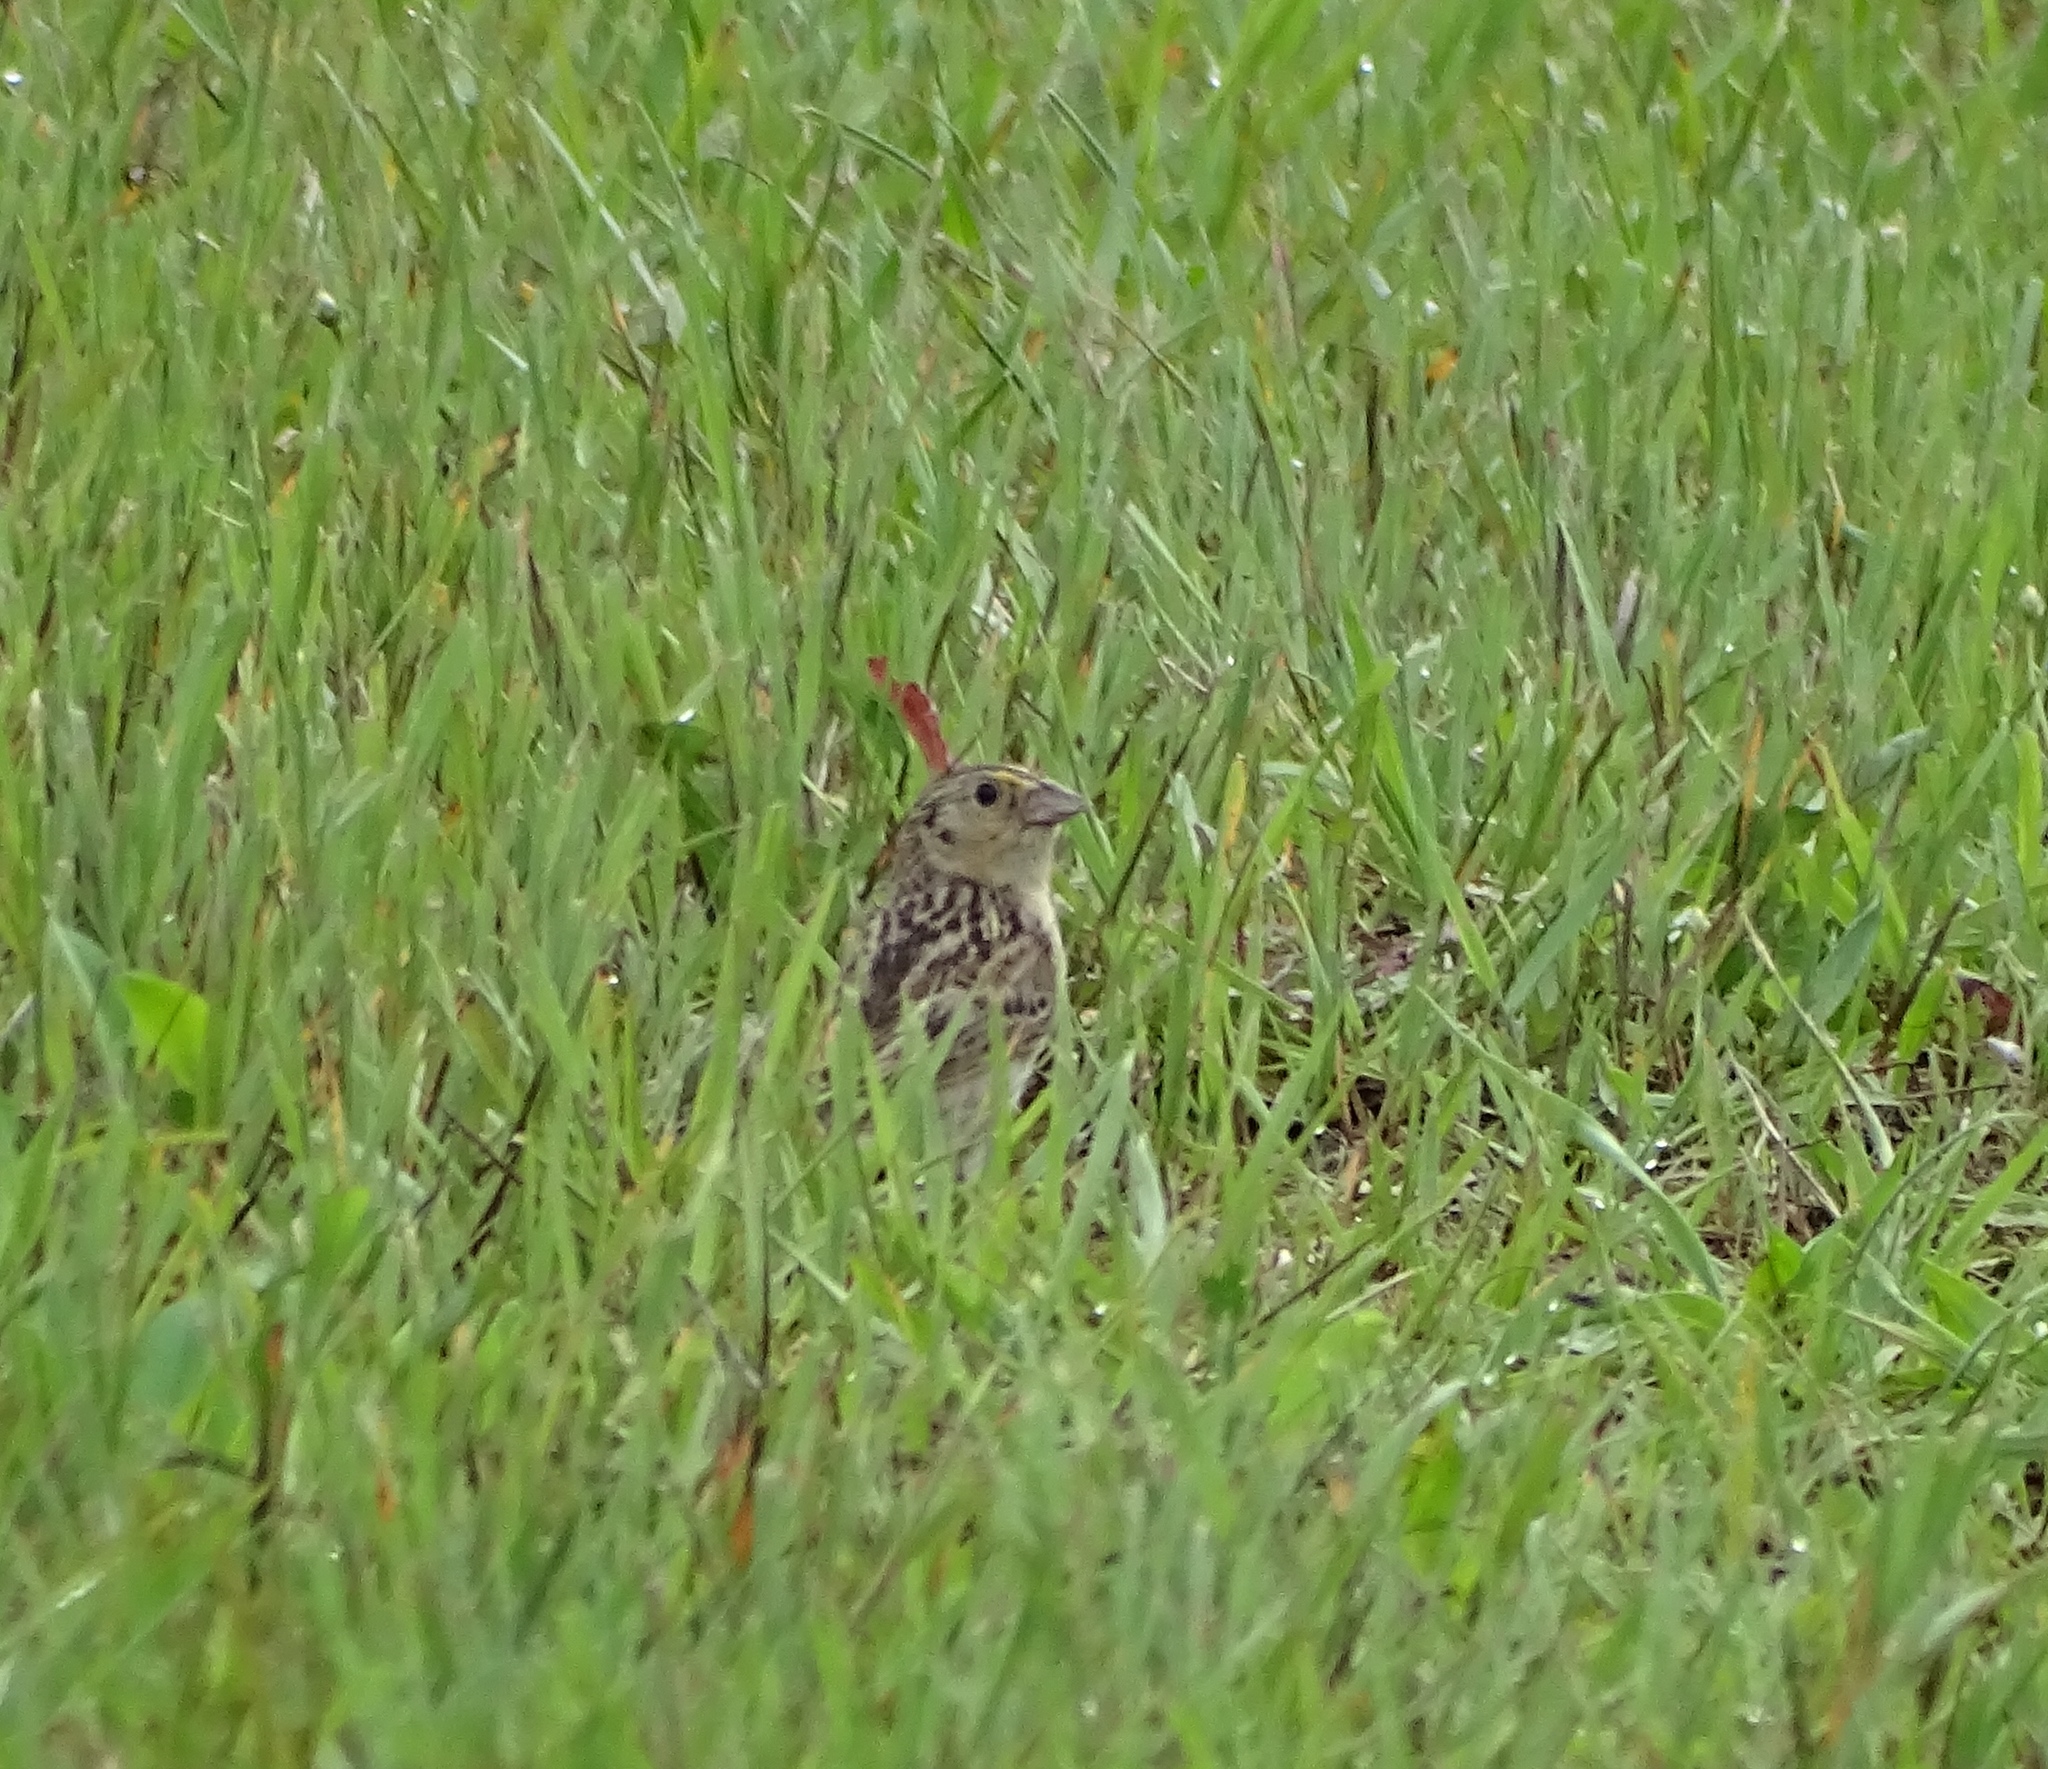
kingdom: Animalia
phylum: Chordata
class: Aves
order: Passeriformes
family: Passerellidae
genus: Ammodramus
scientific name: Ammodramus savannarum
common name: Grasshopper sparrow
